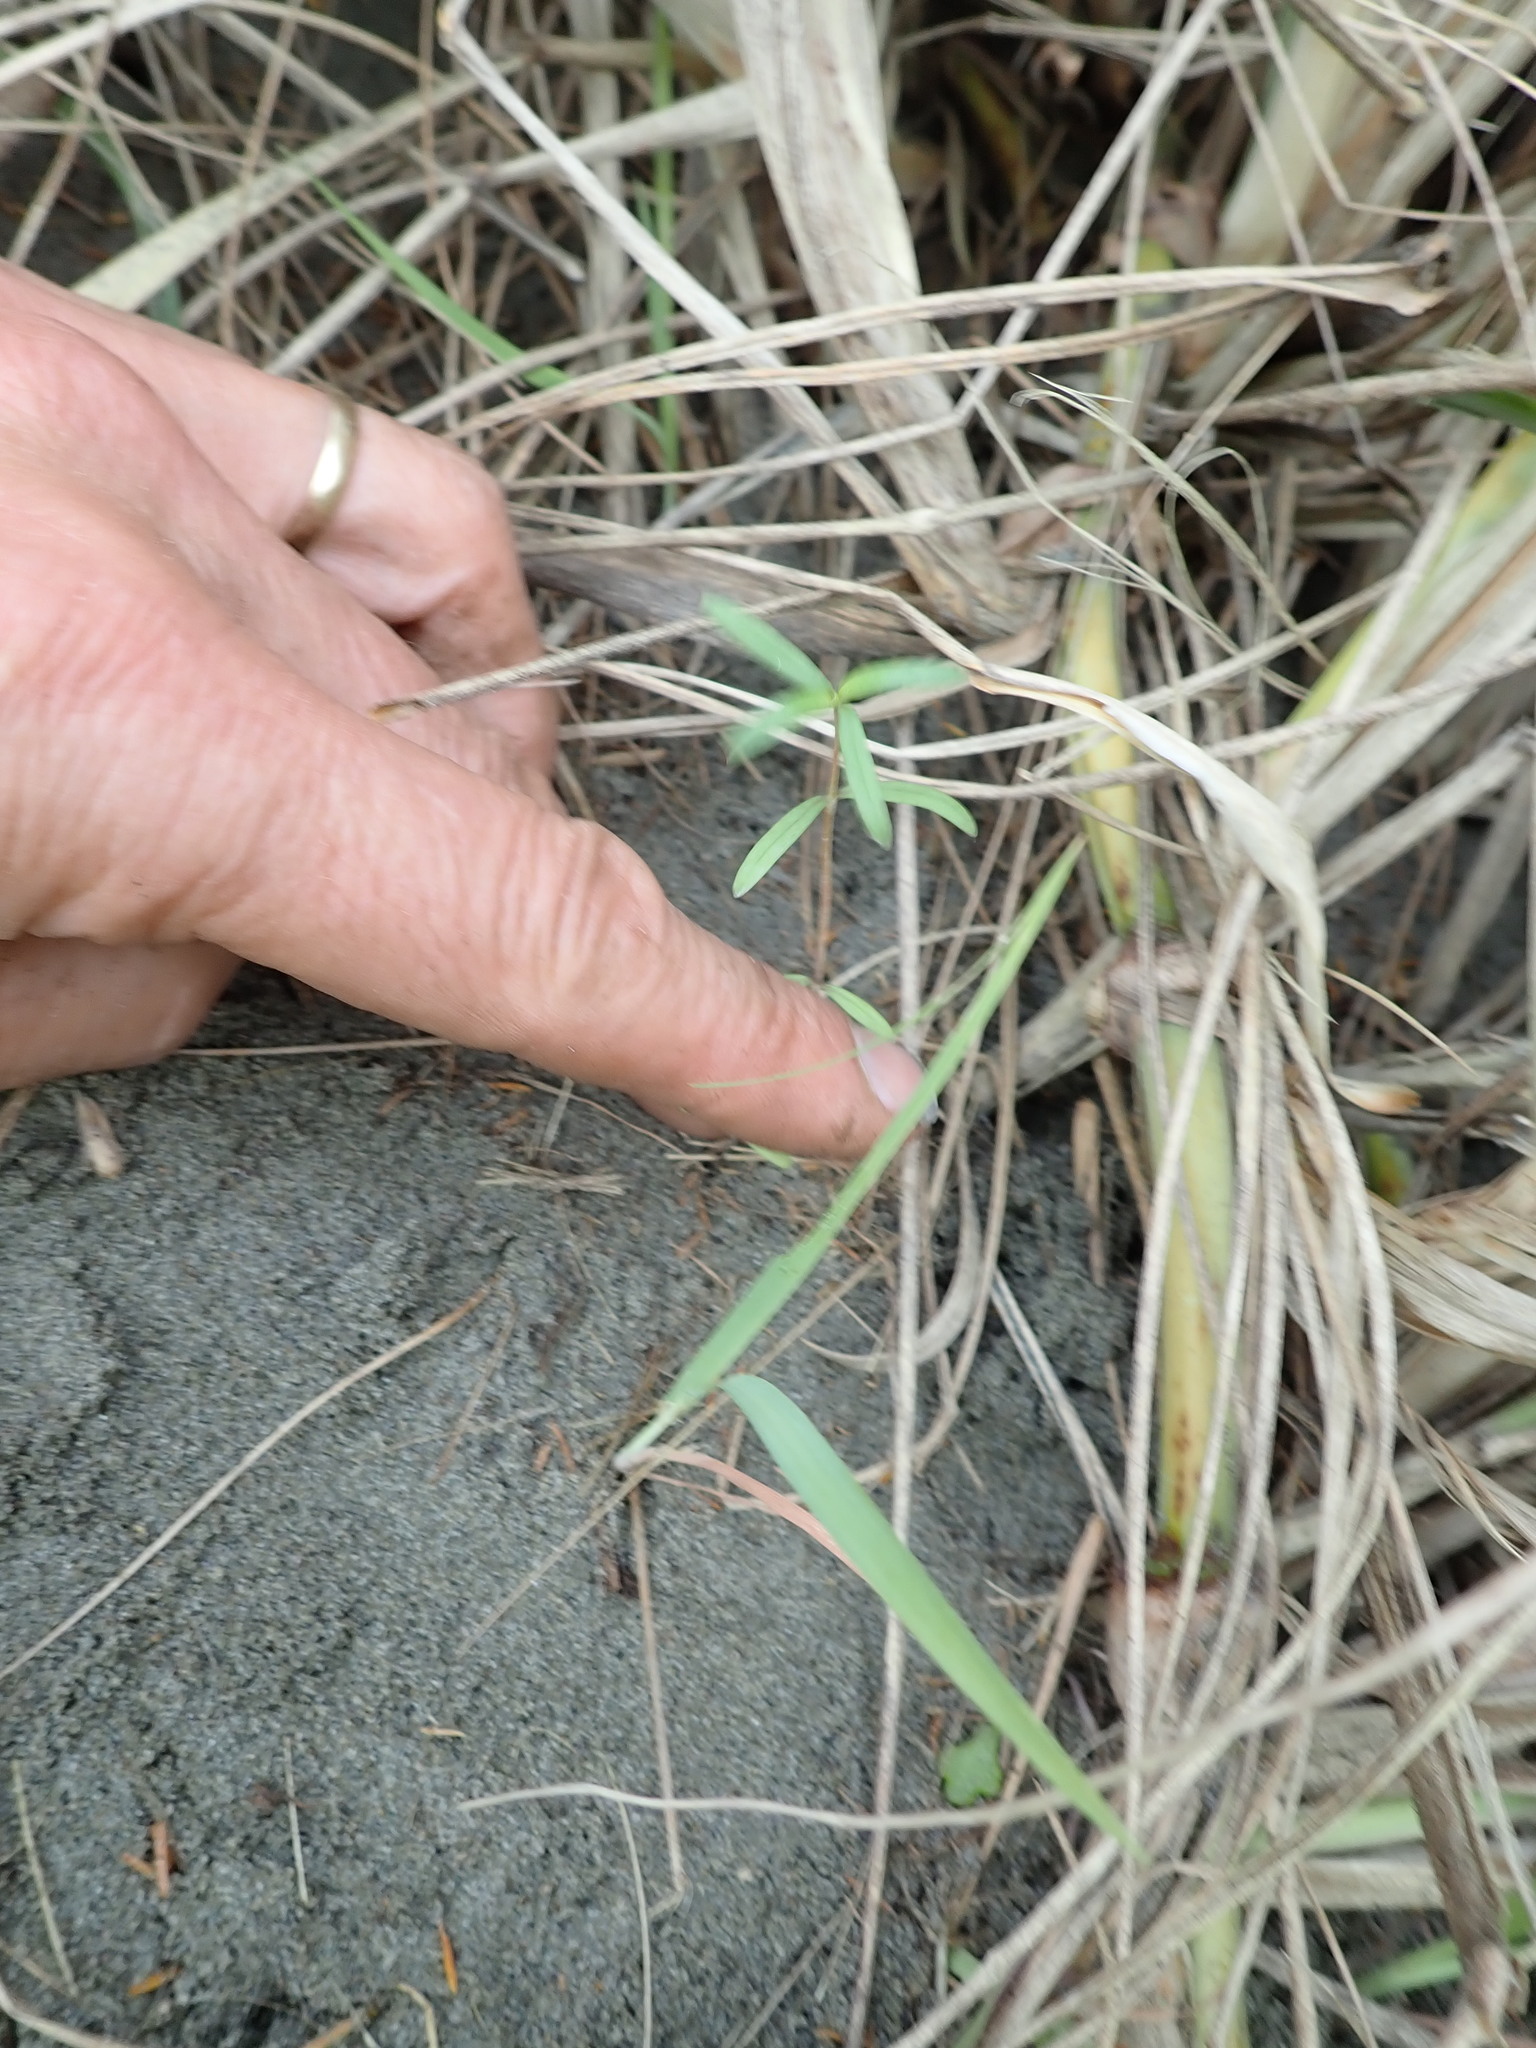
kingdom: Plantae
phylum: Tracheophyta
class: Magnoliopsida
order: Gentianales
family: Rubiaceae
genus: Coprosma
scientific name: Coprosma acerosa
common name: Sand coprosma
